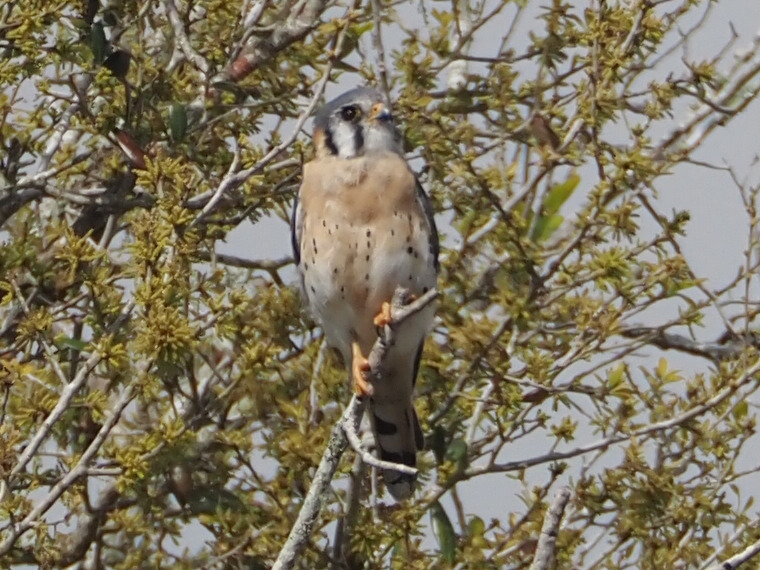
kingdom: Animalia
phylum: Chordata
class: Aves
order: Falconiformes
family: Falconidae
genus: Falco
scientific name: Falco sparverius
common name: American kestrel
